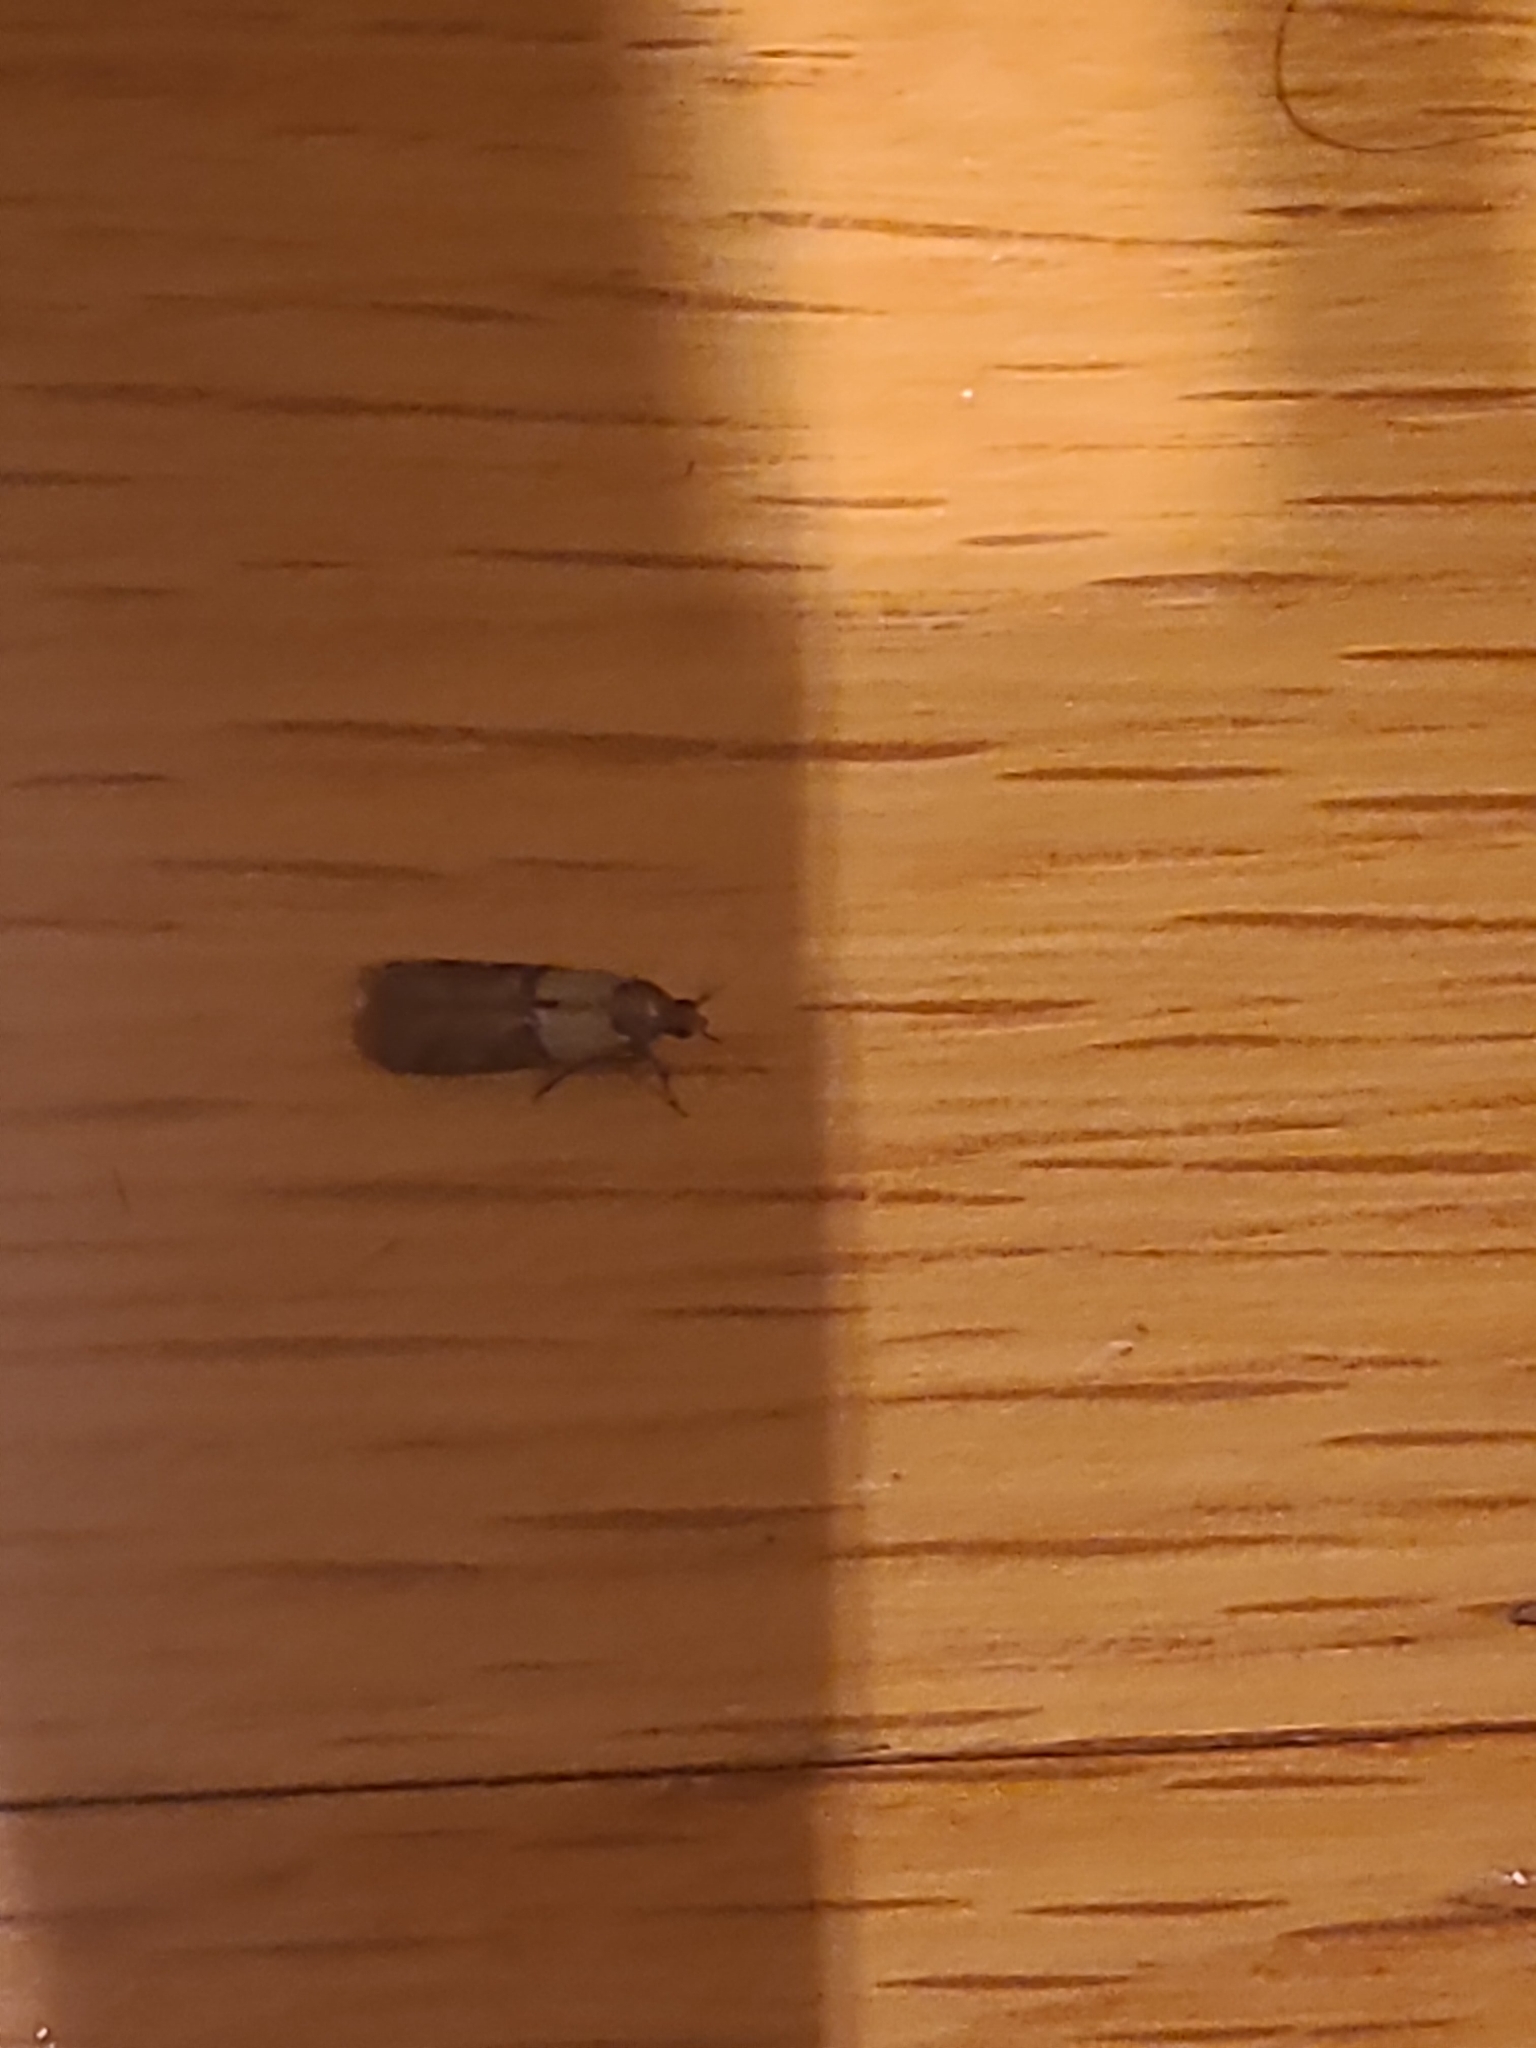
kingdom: Animalia
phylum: Arthropoda
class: Insecta
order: Lepidoptera
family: Pyralidae
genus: Plodia
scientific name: Plodia interpunctella
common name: Indian meal moth
